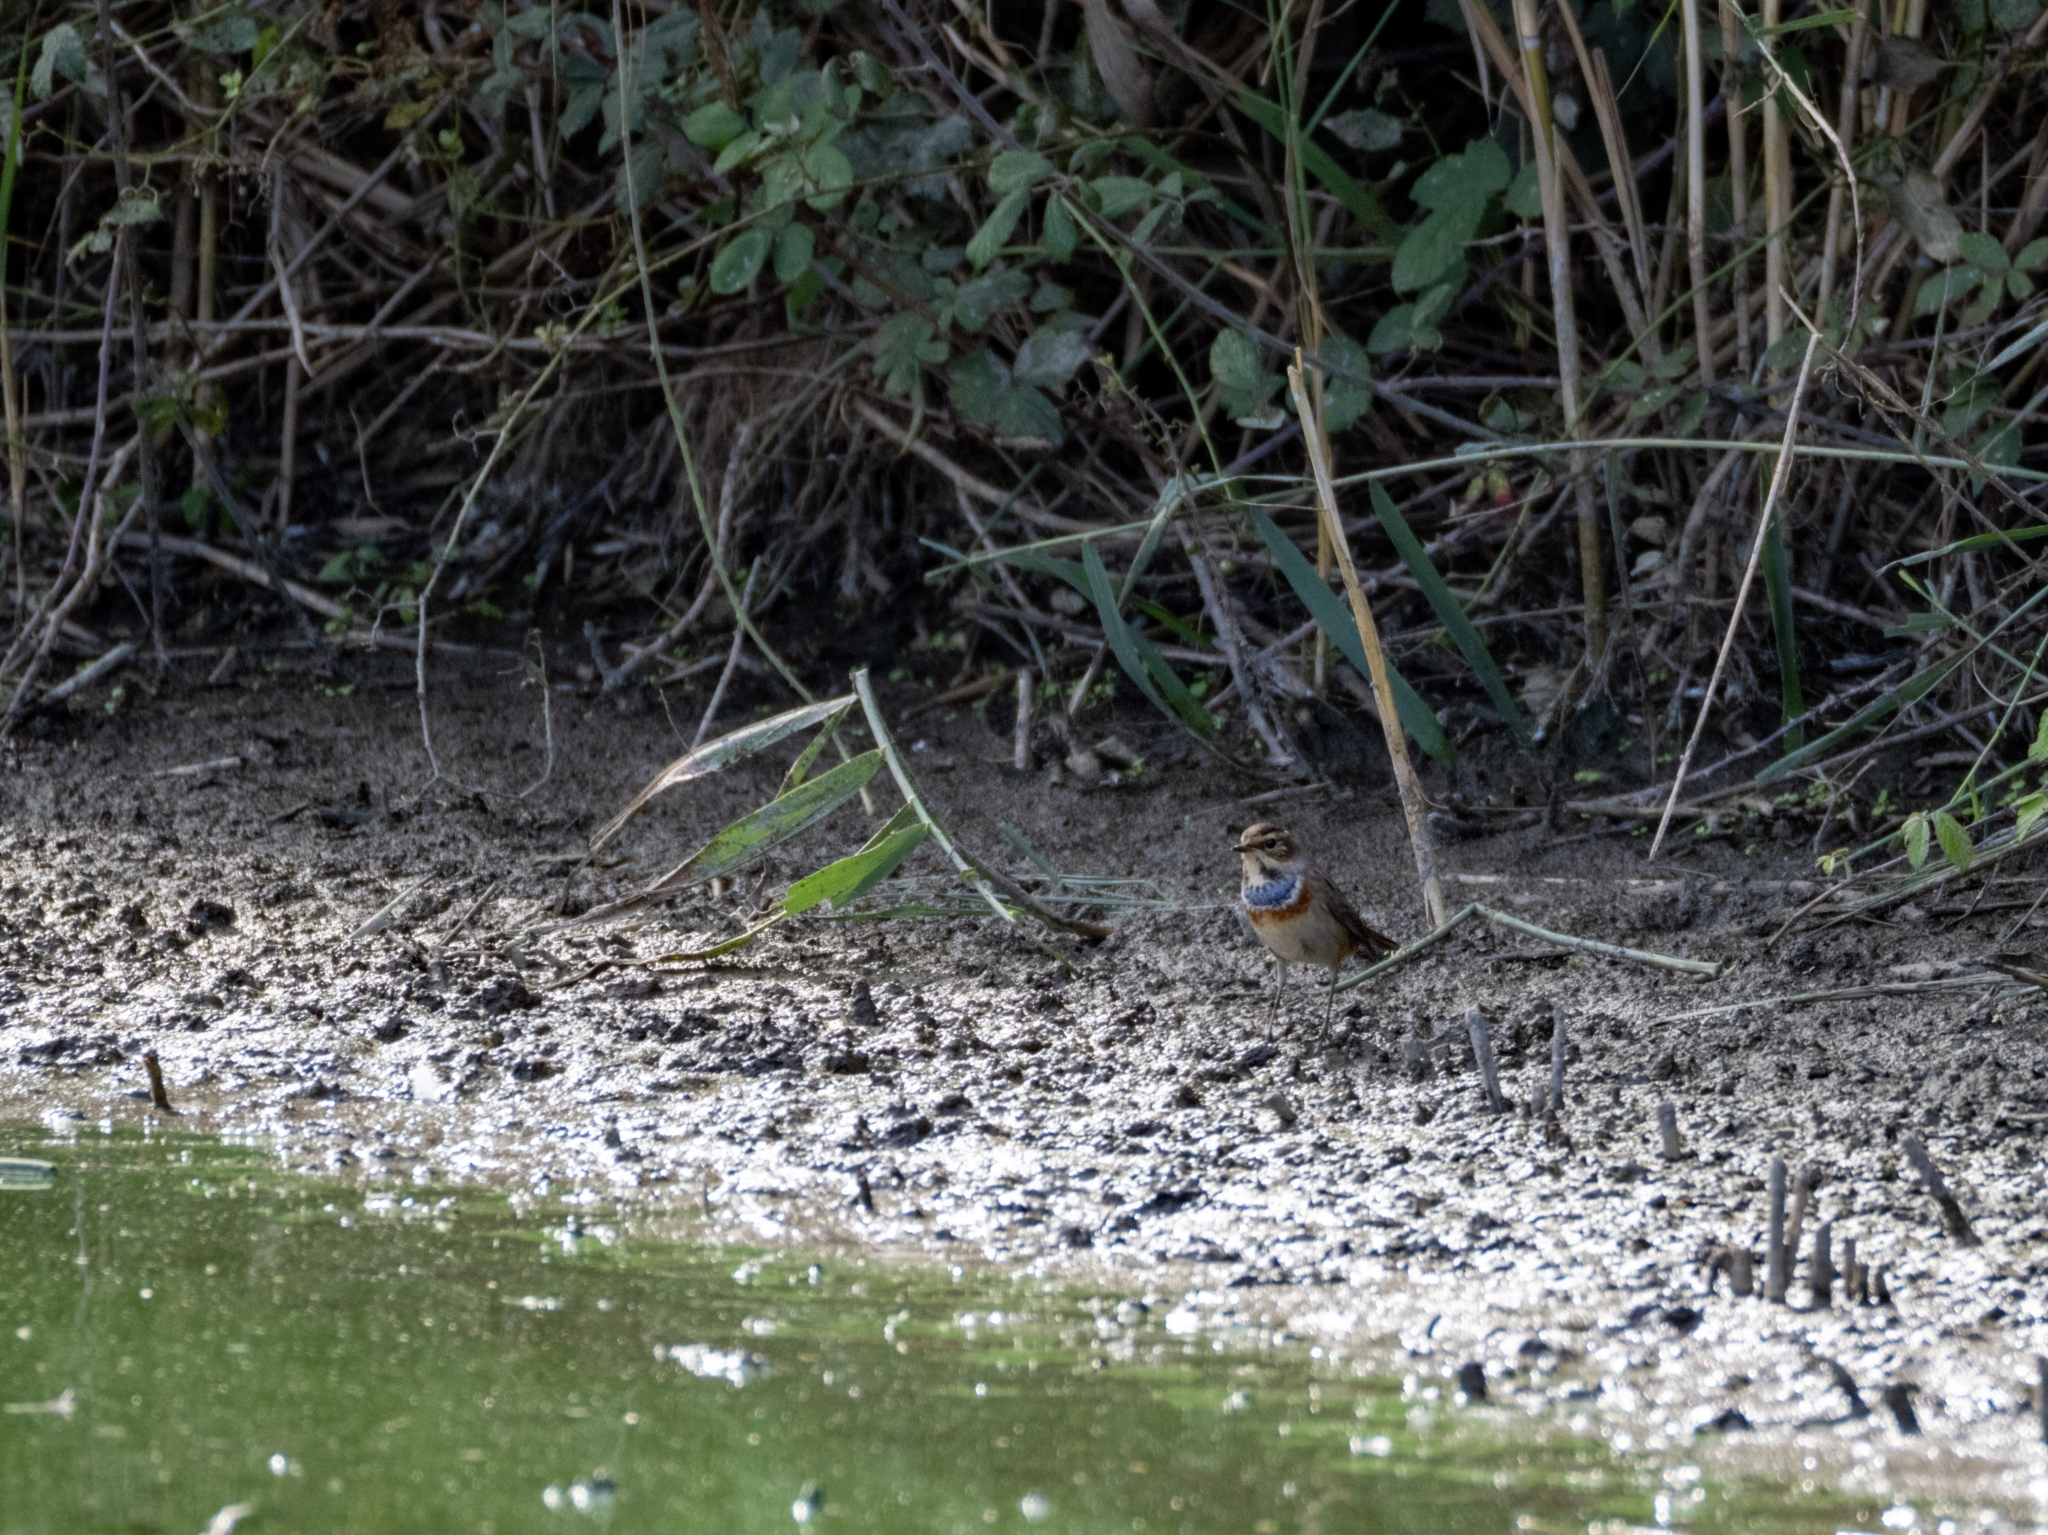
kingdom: Animalia
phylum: Chordata
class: Aves
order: Passeriformes
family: Muscicapidae
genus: Luscinia
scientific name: Luscinia svecica
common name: Bluethroat
